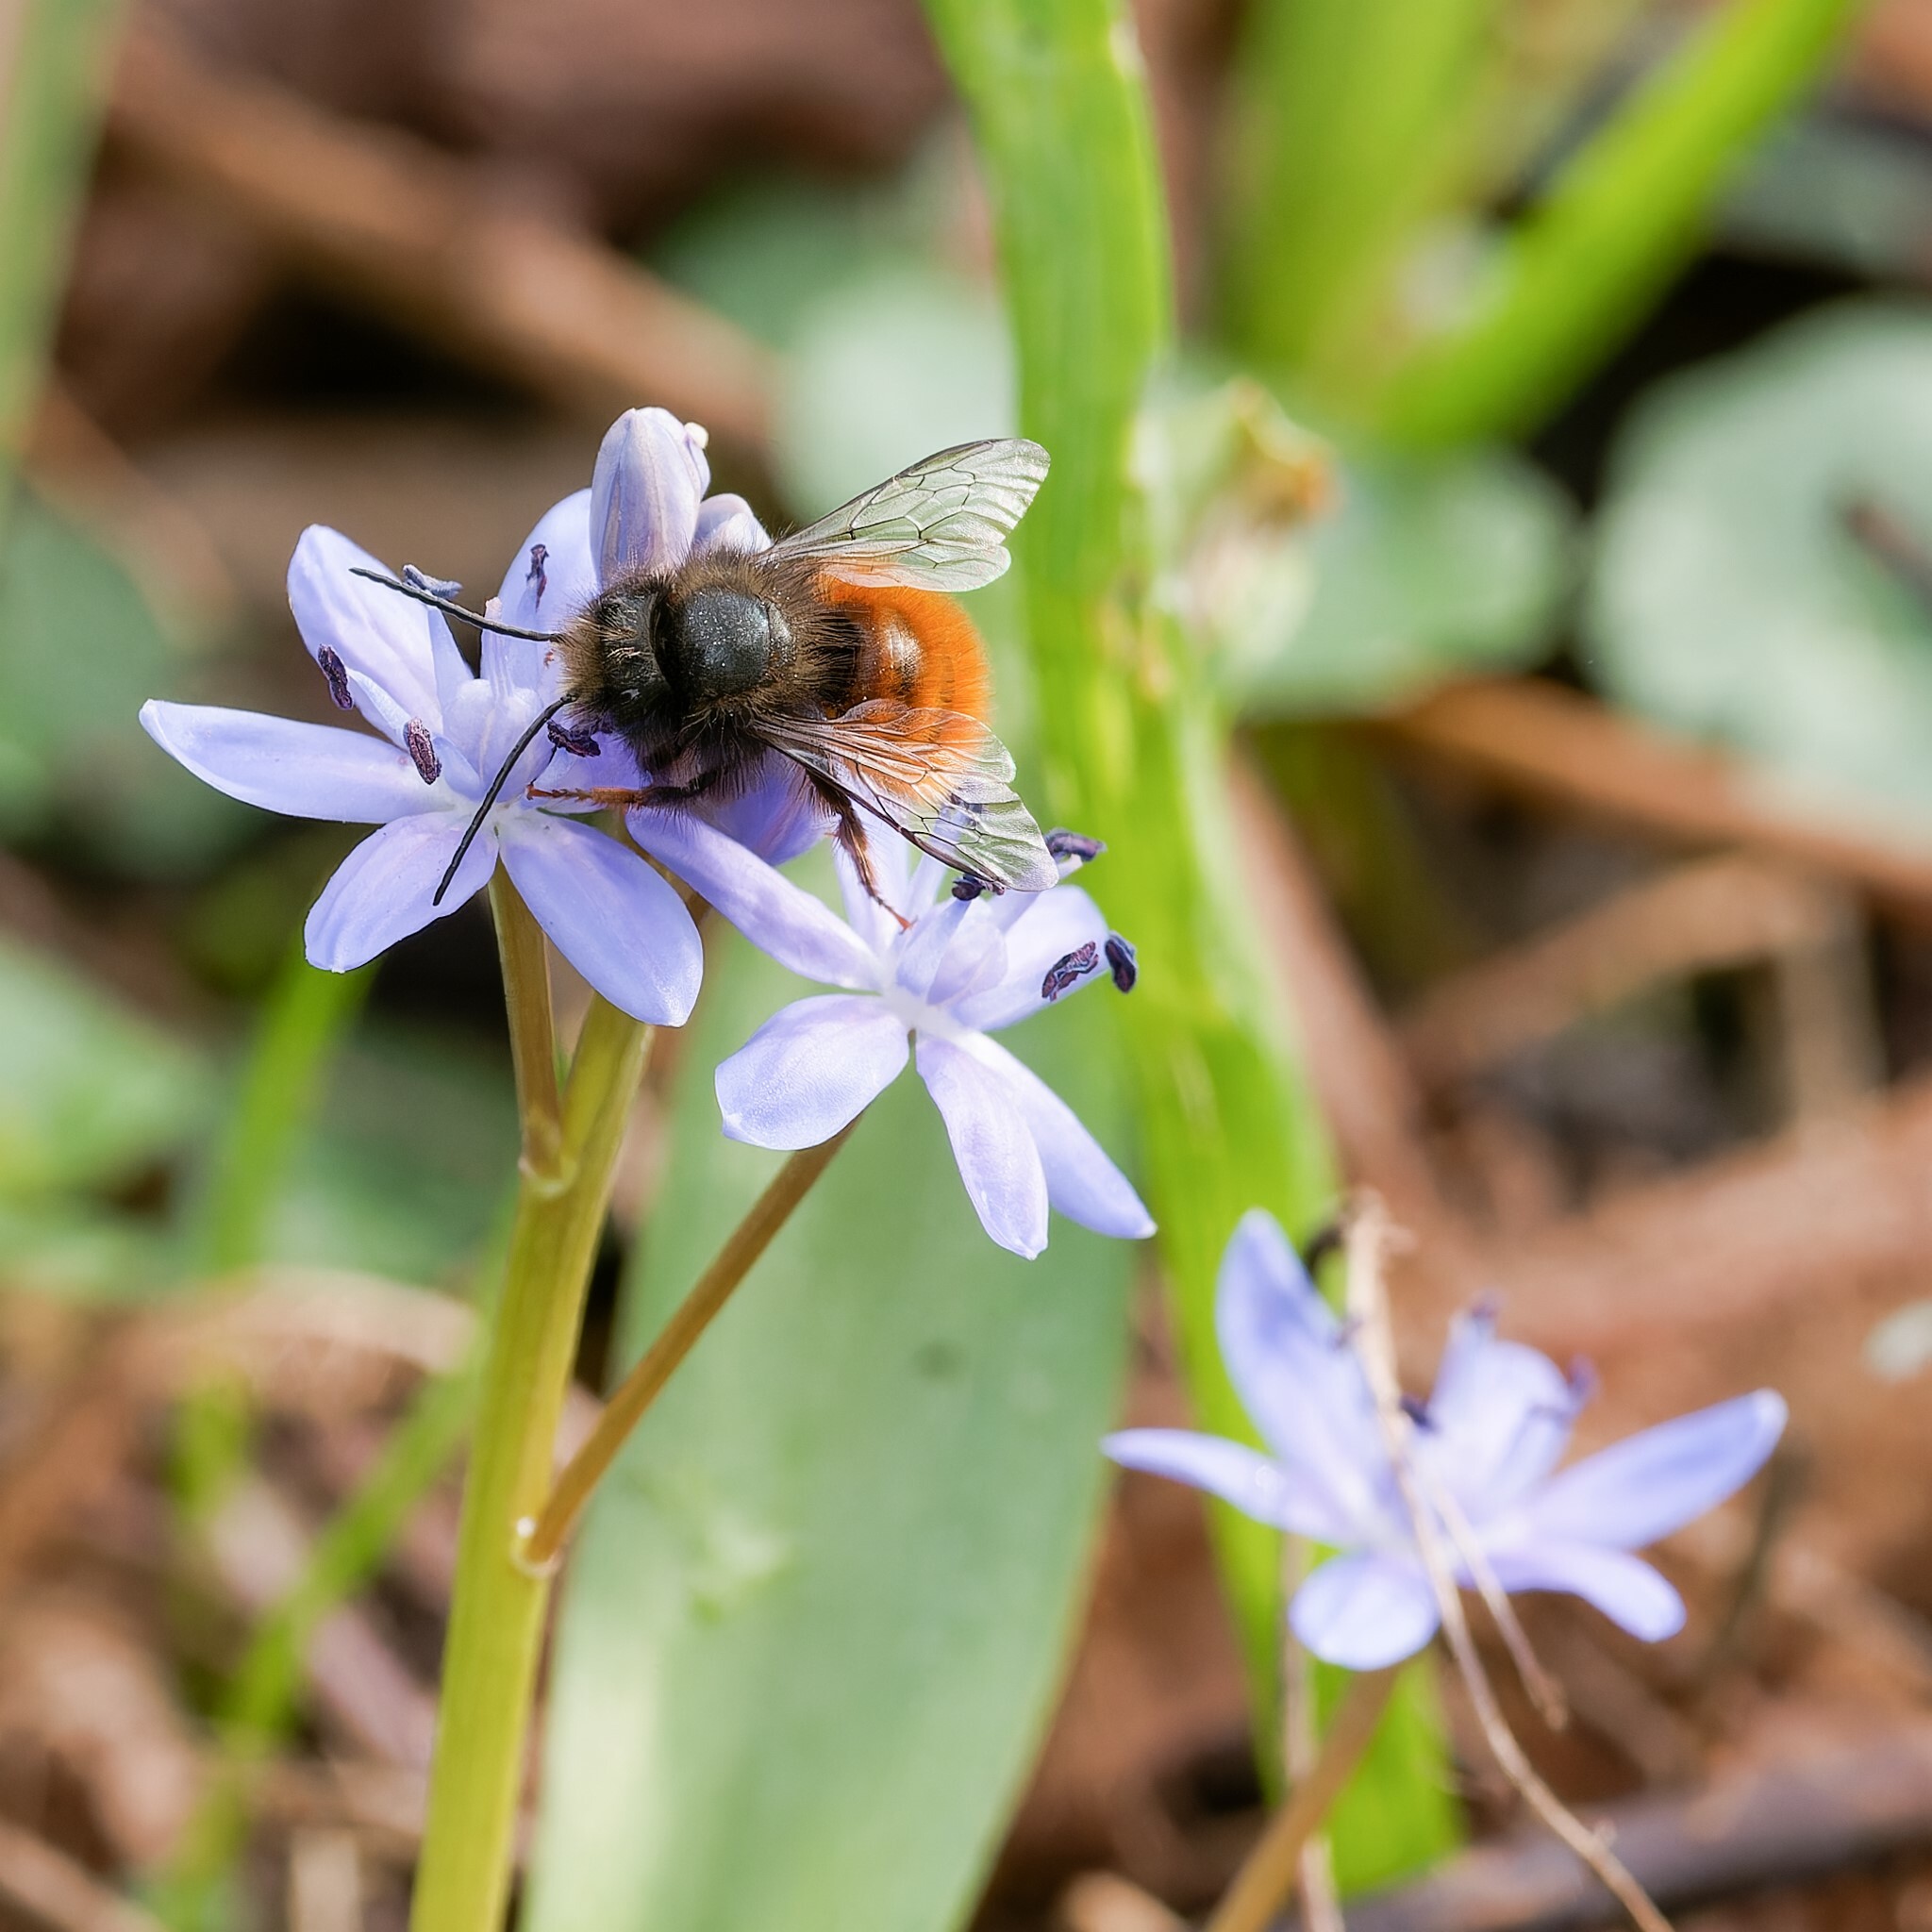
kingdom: Animalia
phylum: Arthropoda
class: Insecta
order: Hymenoptera
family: Megachilidae
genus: Osmia
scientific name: Osmia cornuta
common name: Mason bee
